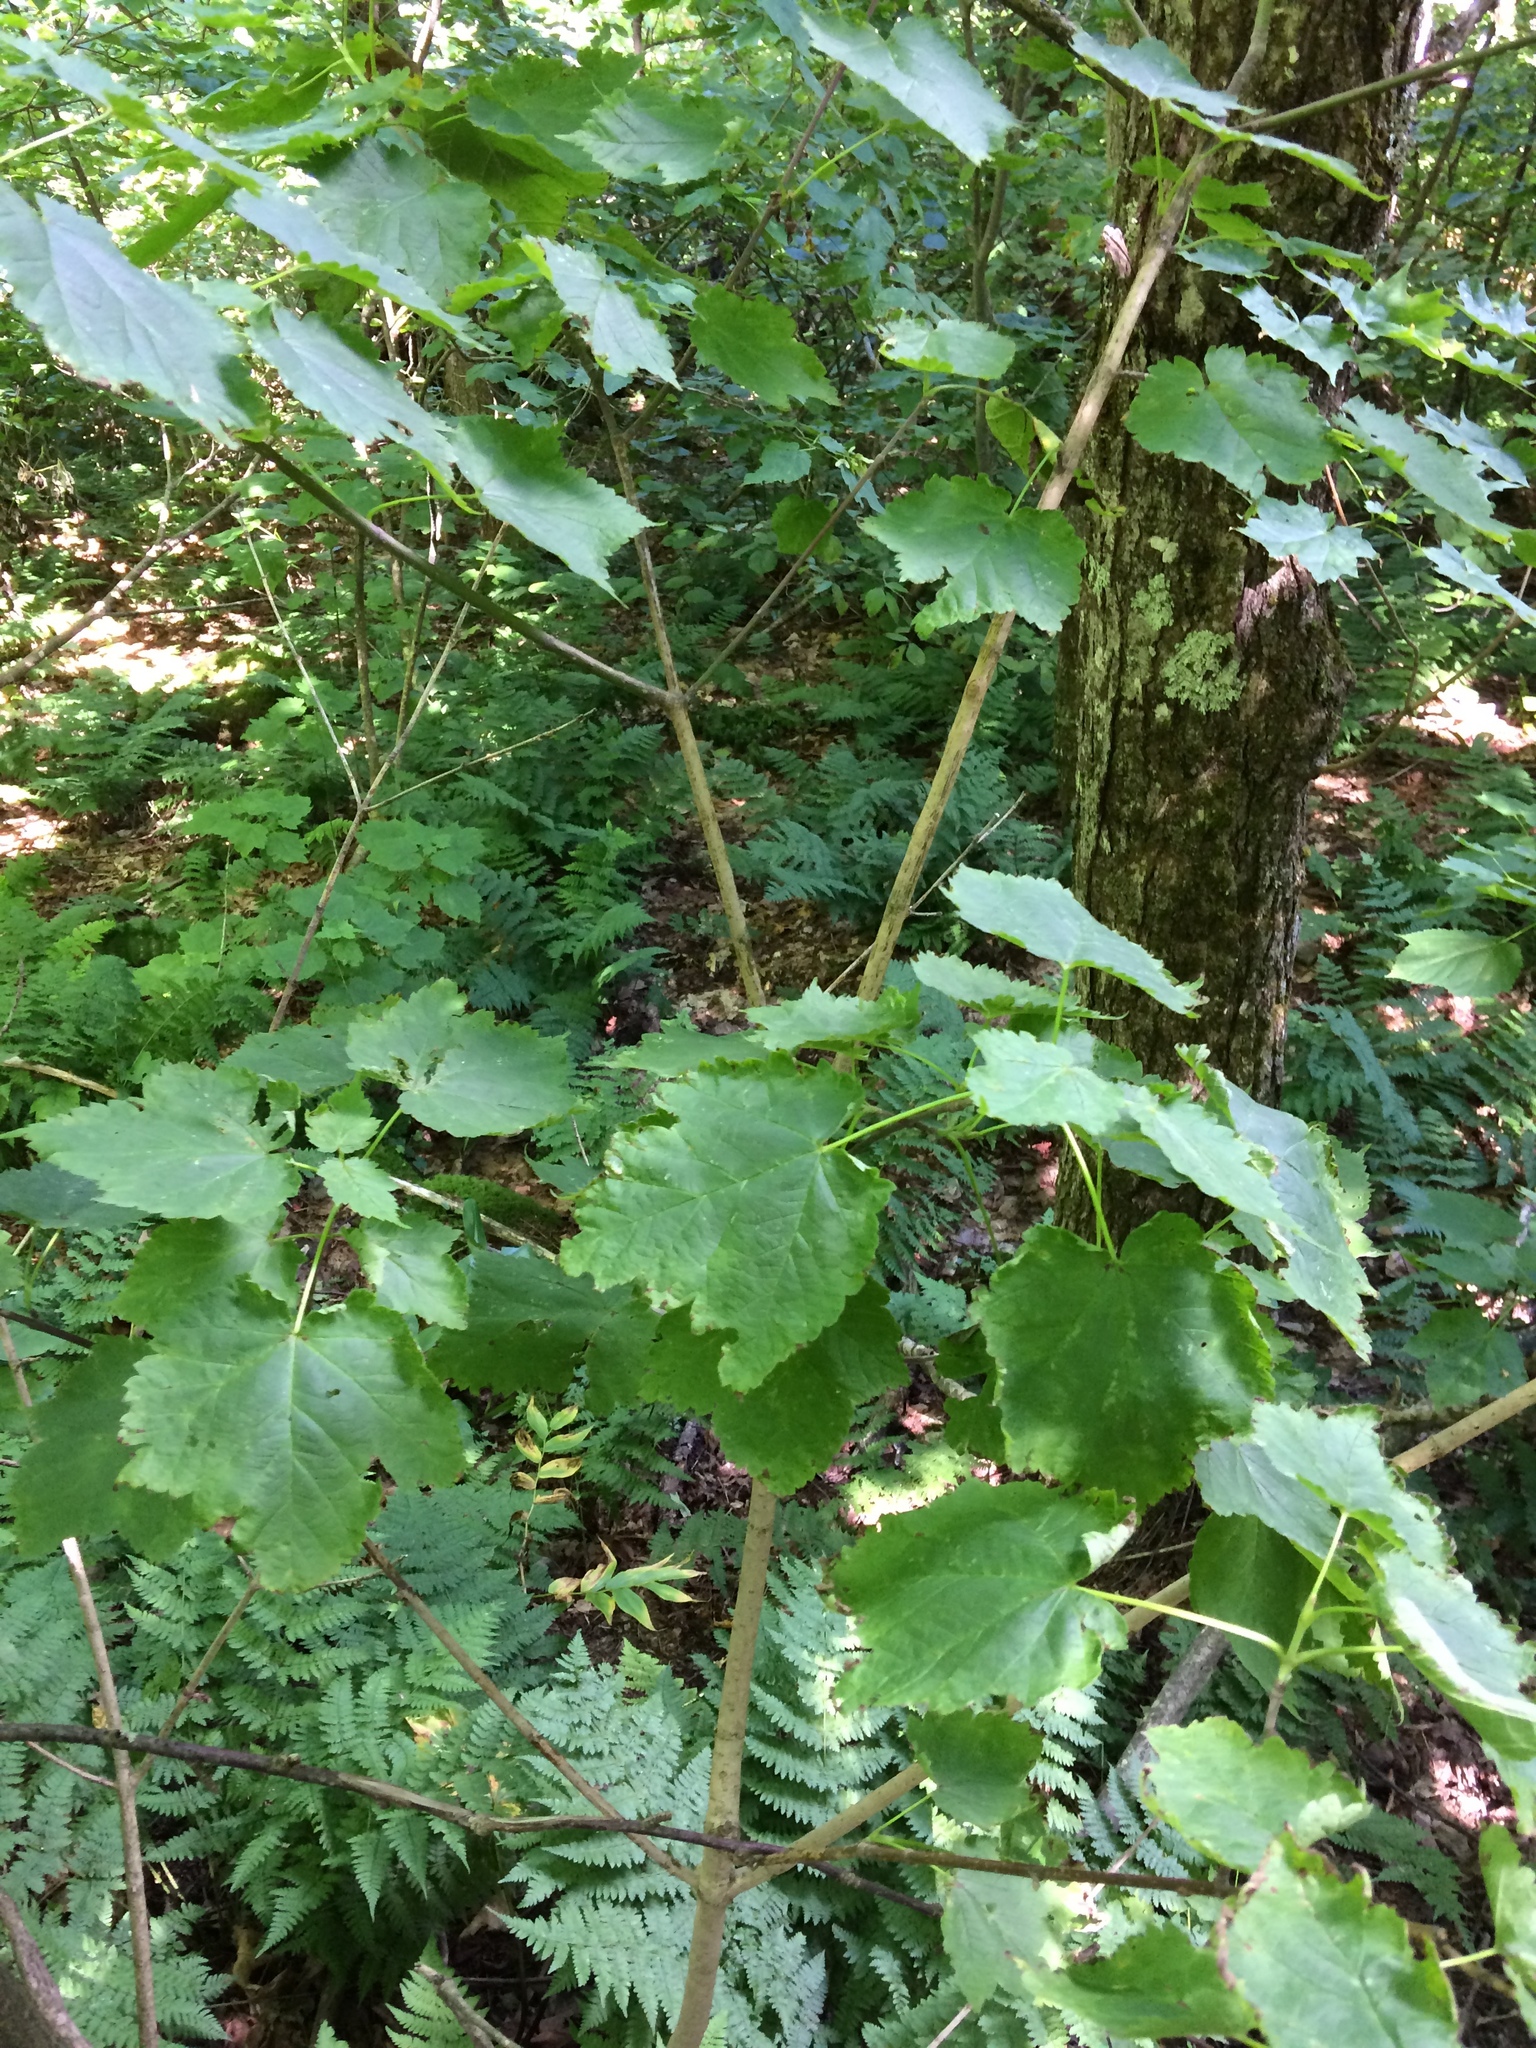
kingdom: Plantae
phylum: Tracheophyta
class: Magnoliopsida
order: Sapindales
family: Sapindaceae
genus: Acer
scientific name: Acer spicatum
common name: Mountain maple
